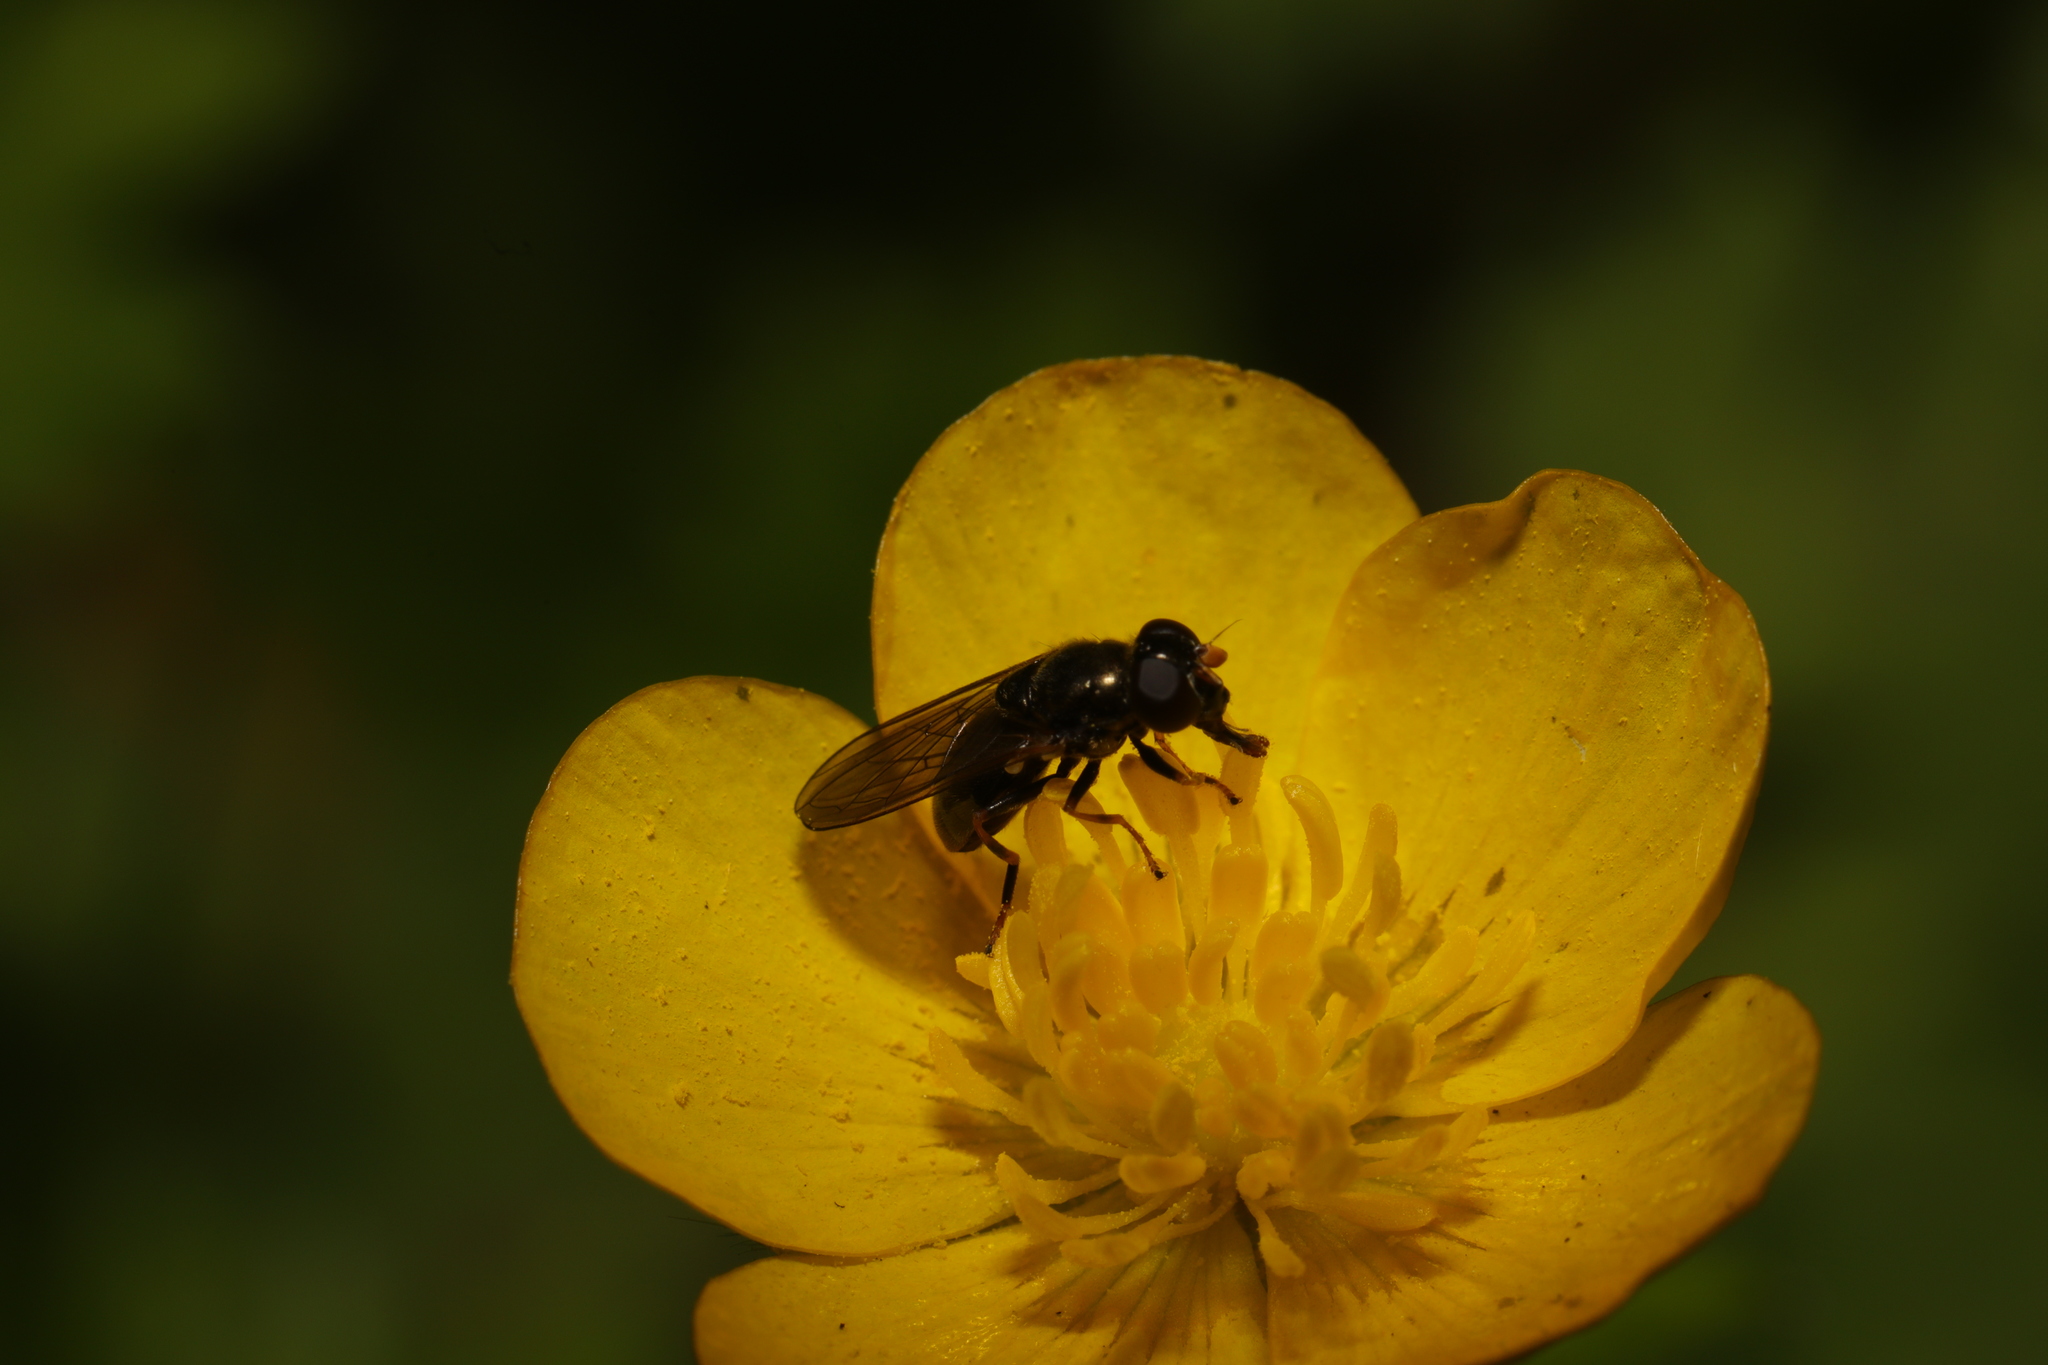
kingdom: Animalia
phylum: Arthropoda
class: Insecta
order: Diptera
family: Syrphidae
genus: Cheilosia
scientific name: Cheilosia pagana
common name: Hover fly
